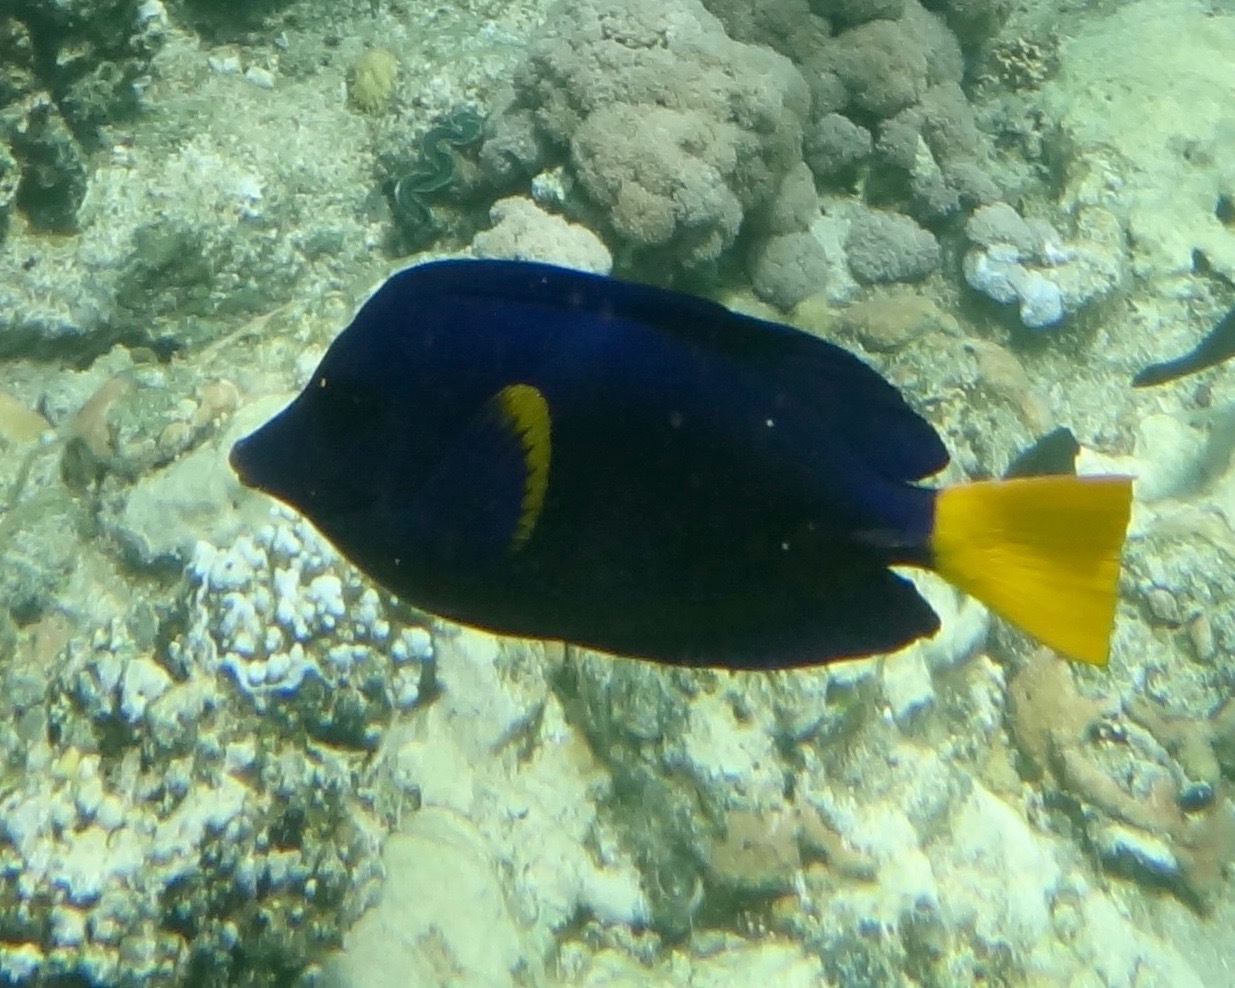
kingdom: Animalia
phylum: Chordata
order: Perciformes
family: Acanthuridae
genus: Zebrasoma
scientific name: Zebrasoma xanthurum
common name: Purple tang
